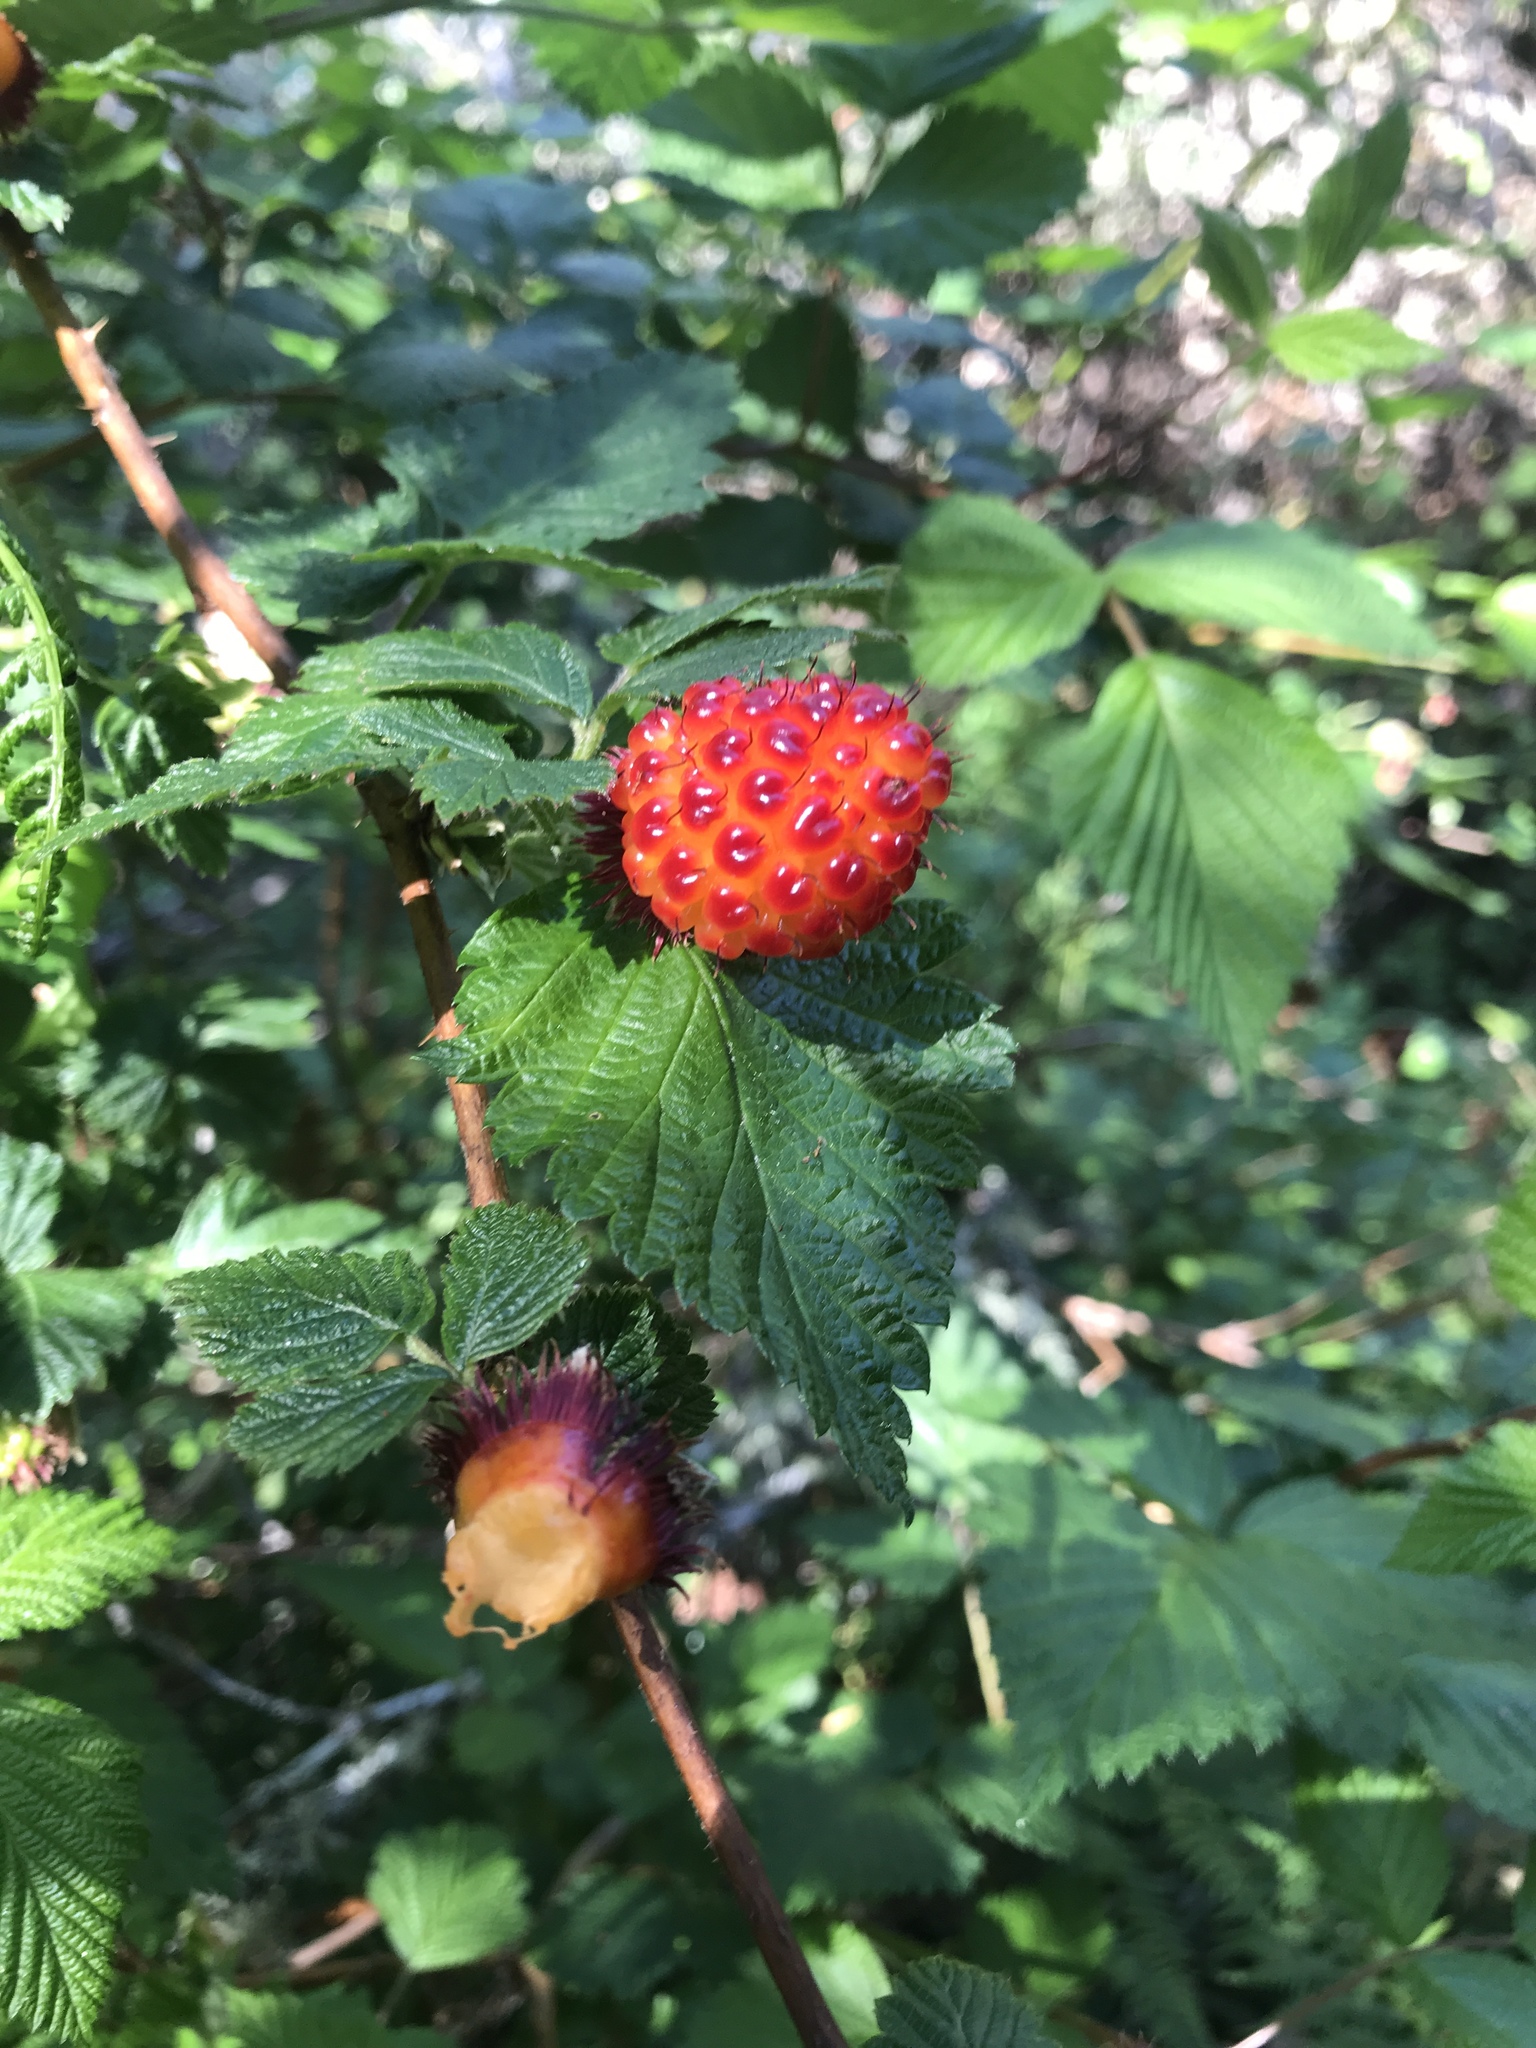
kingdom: Plantae
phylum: Tracheophyta
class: Magnoliopsida
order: Rosales
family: Rosaceae
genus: Rubus
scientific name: Rubus spectabilis
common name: Salmonberry
